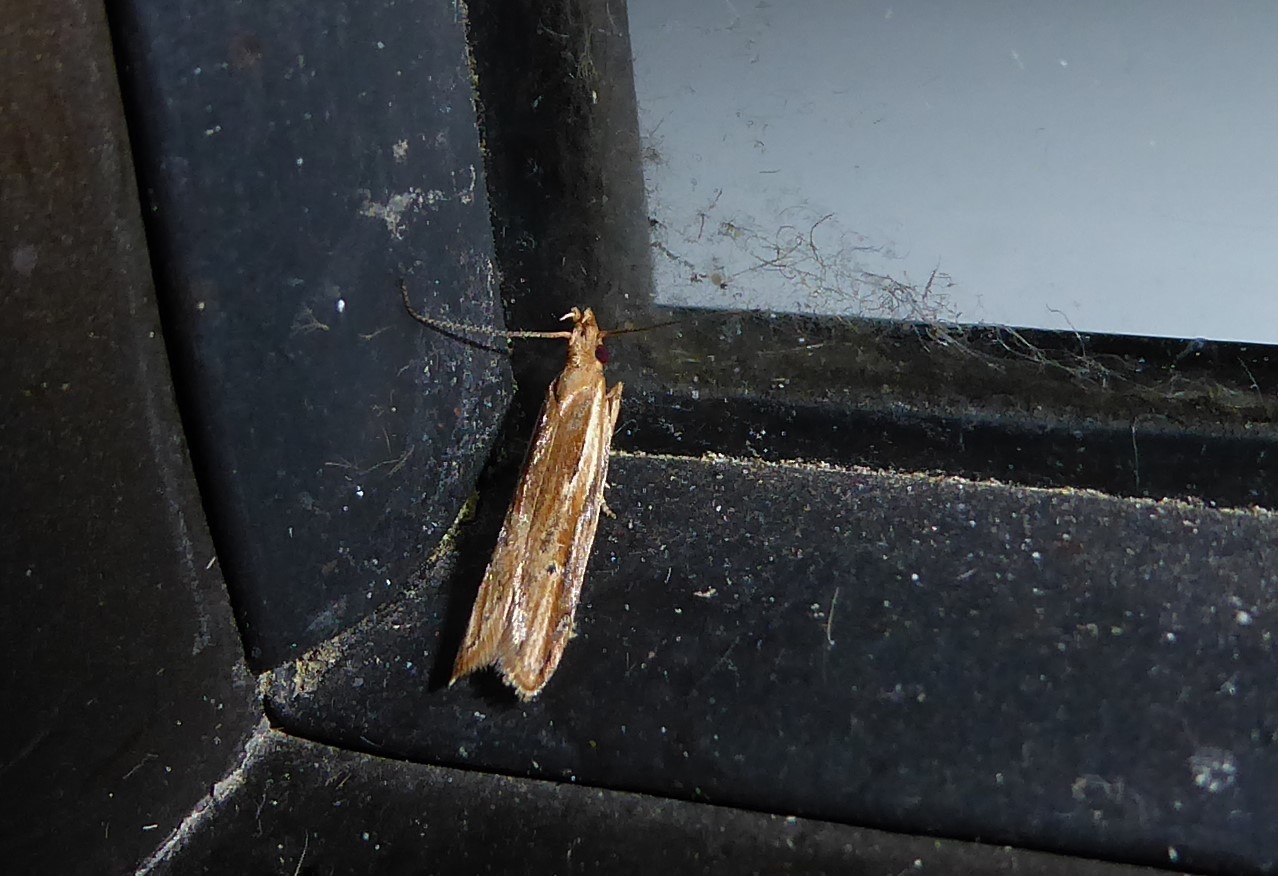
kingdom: Animalia
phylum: Arthropoda
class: Insecta
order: Lepidoptera
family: Depressariidae
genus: Eutorna
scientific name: Eutorna symmorpha
